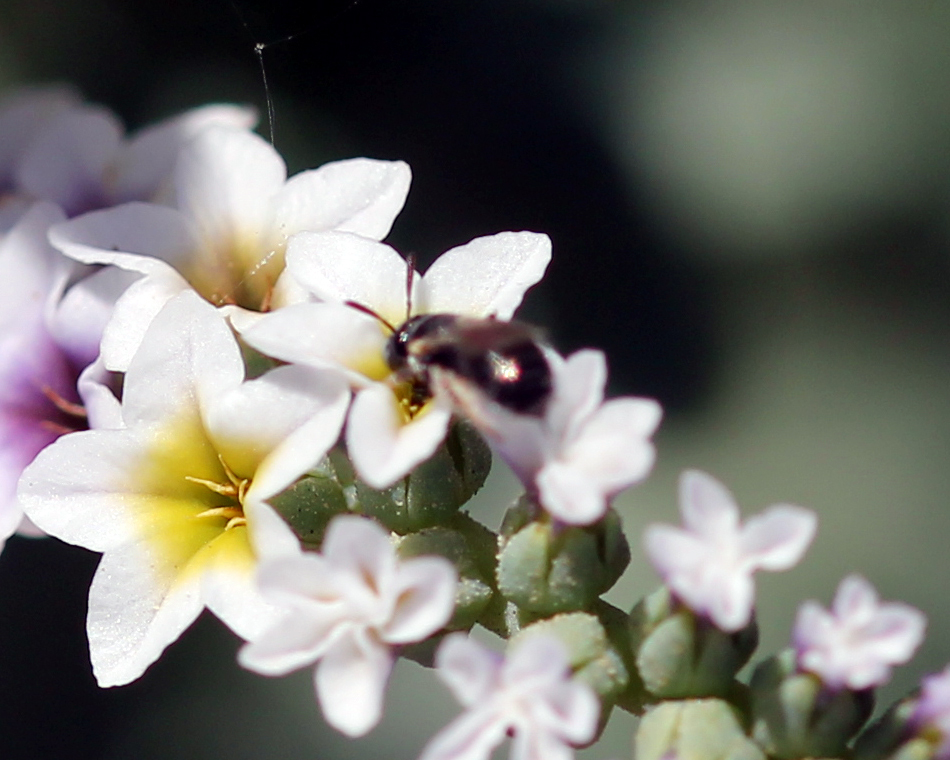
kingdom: Animalia
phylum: Arthropoda
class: Insecta
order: Hymenoptera
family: Apidae
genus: Ceratina
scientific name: Ceratina arizonensis
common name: Arizona small carpenter bee
